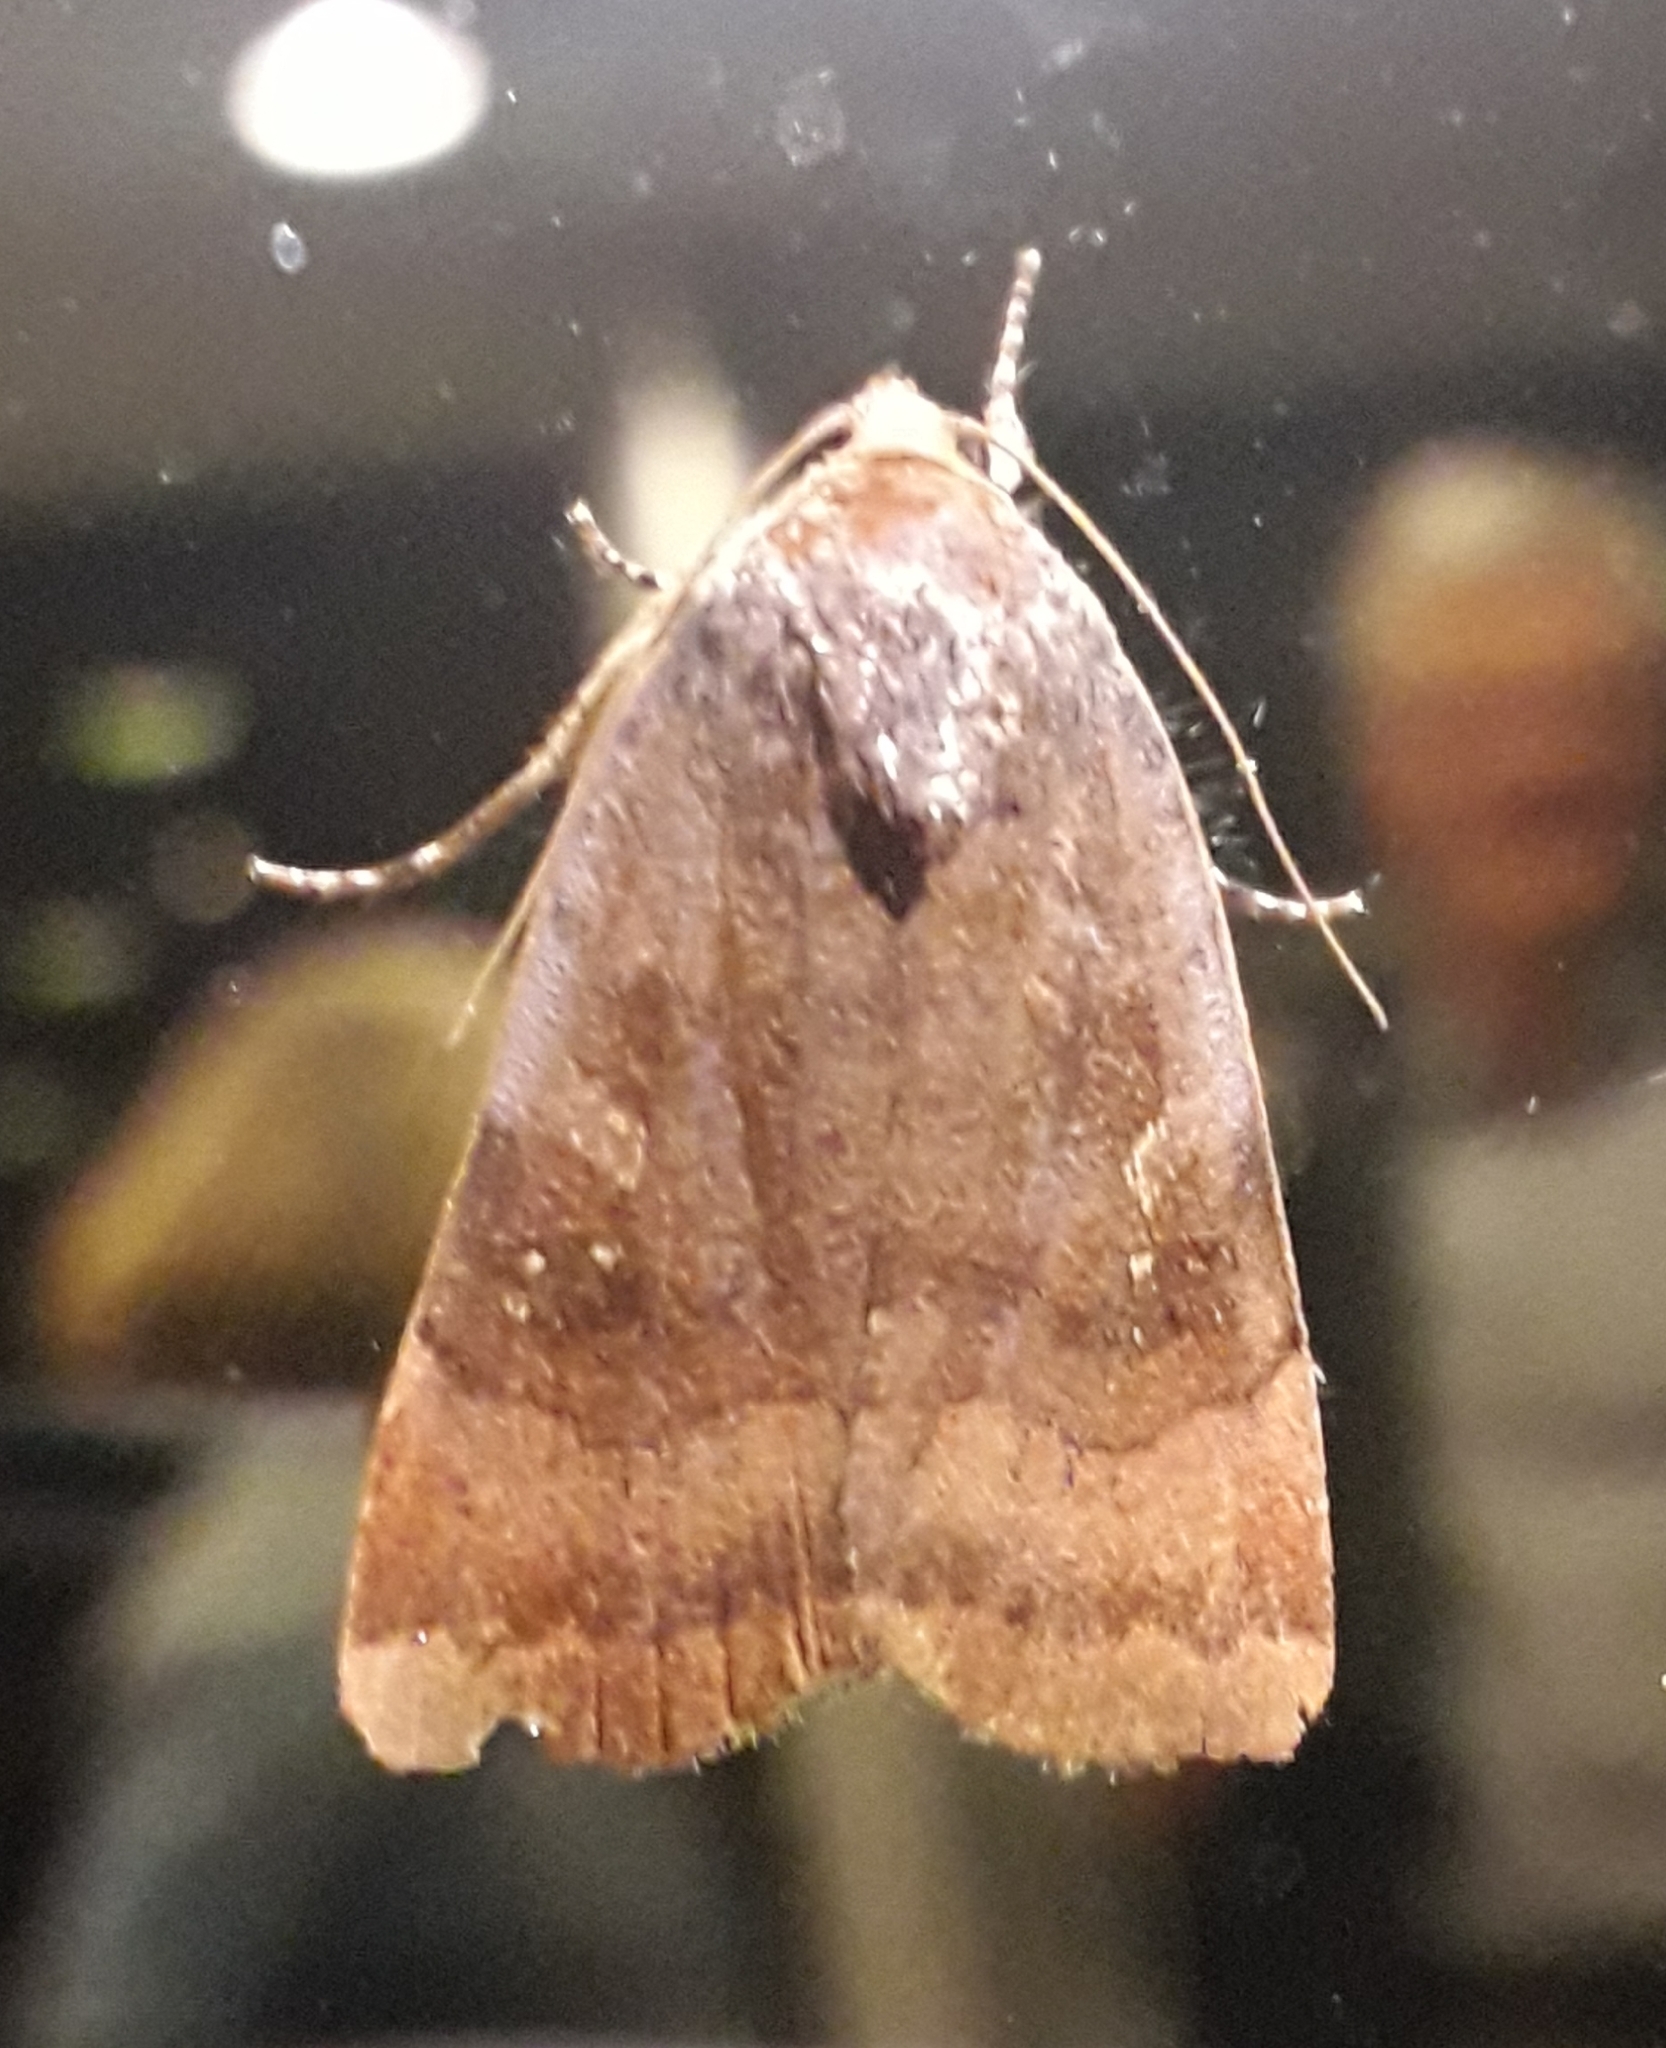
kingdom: Animalia
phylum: Arthropoda
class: Insecta
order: Lepidoptera
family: Noctuidae
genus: Noctua
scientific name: Noctua
